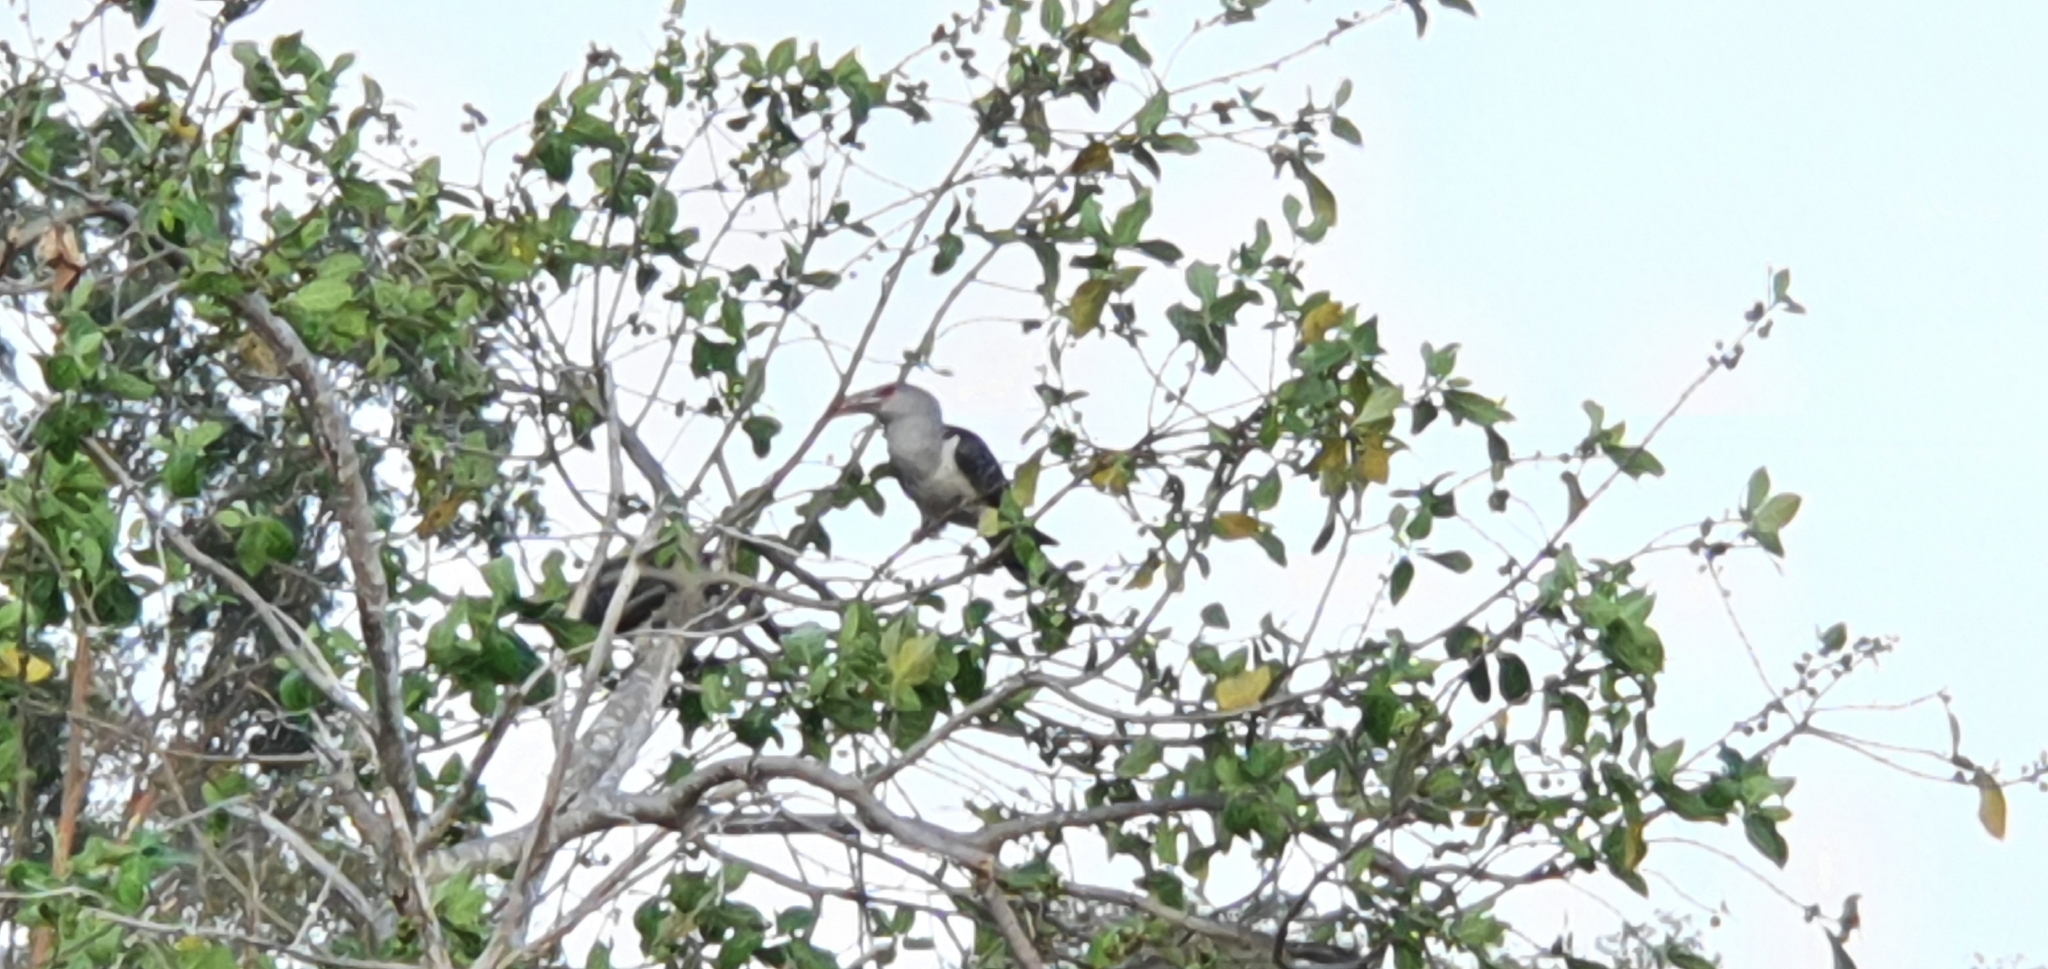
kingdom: Animalia
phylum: Chordata
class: Aves
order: Cuculiformes
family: Cuculidae
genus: Scythrops
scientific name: Scythrops novaehollandiae
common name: Channel-billed cuckoo
